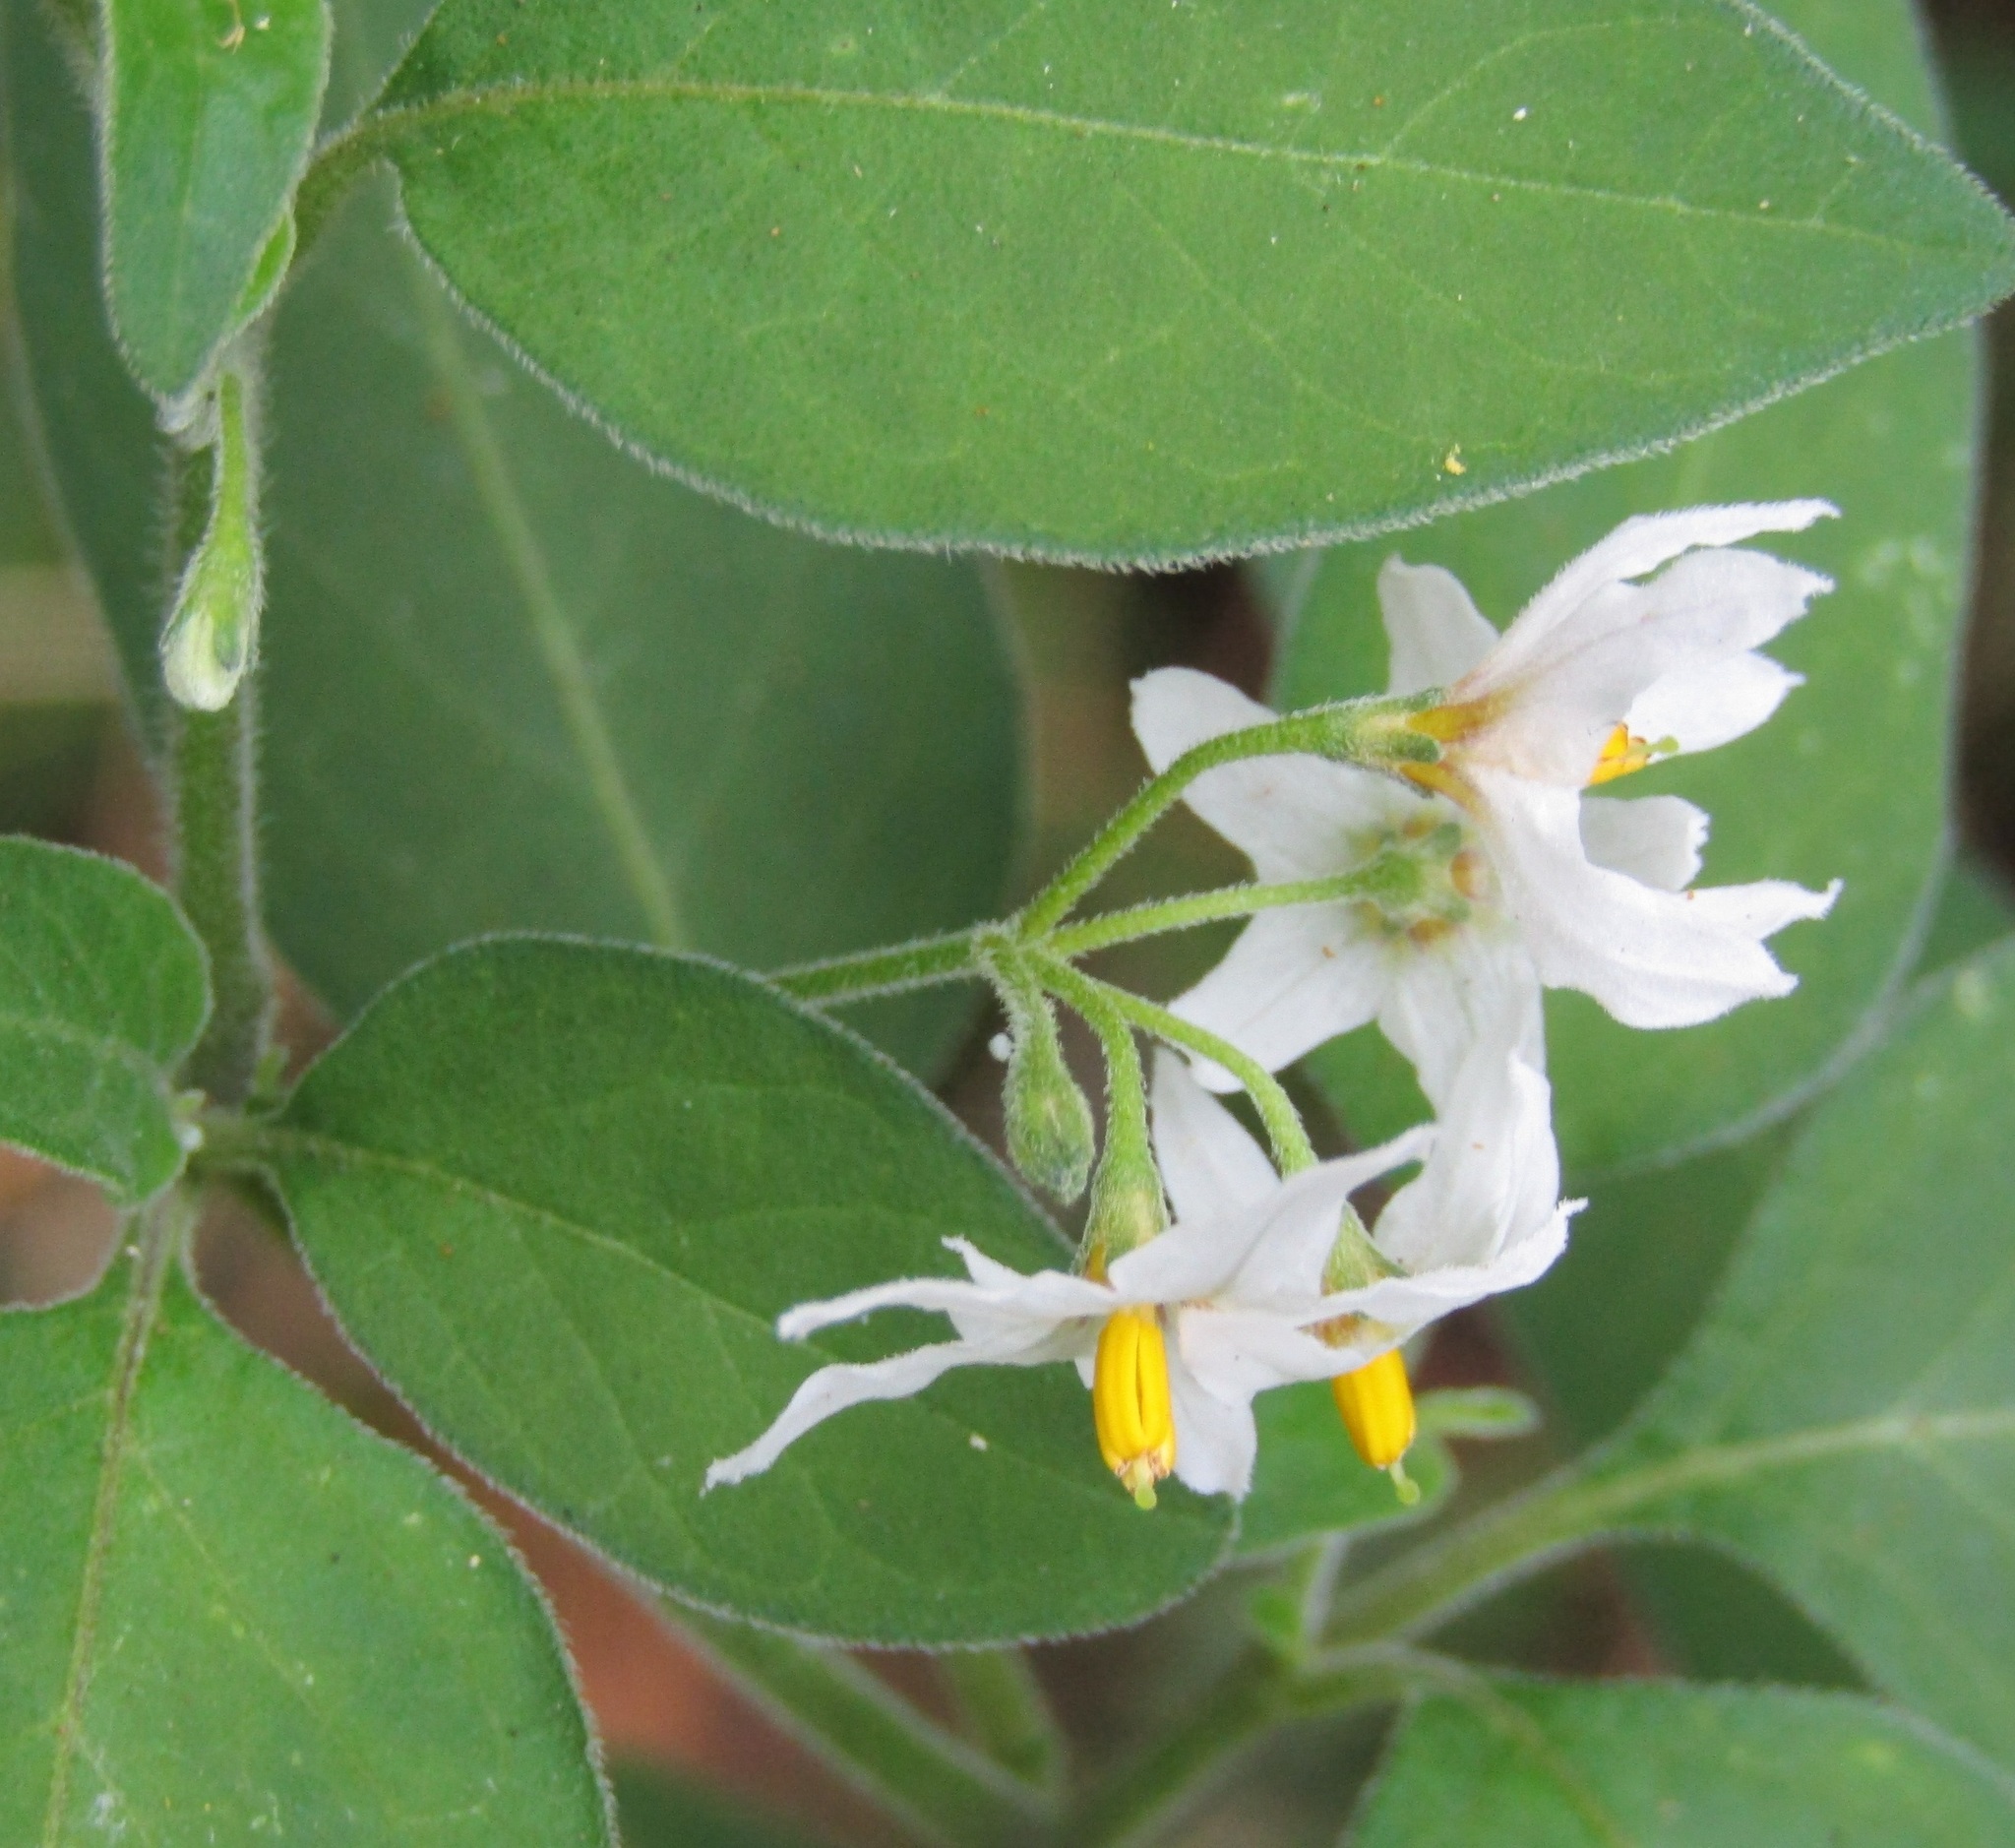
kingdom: Plantae
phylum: Tracheophyta
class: Magnoliopsida
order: Solanales
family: Solanaceae
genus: Solanum
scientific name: Solanum chenopodioides
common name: Tall nightshade
